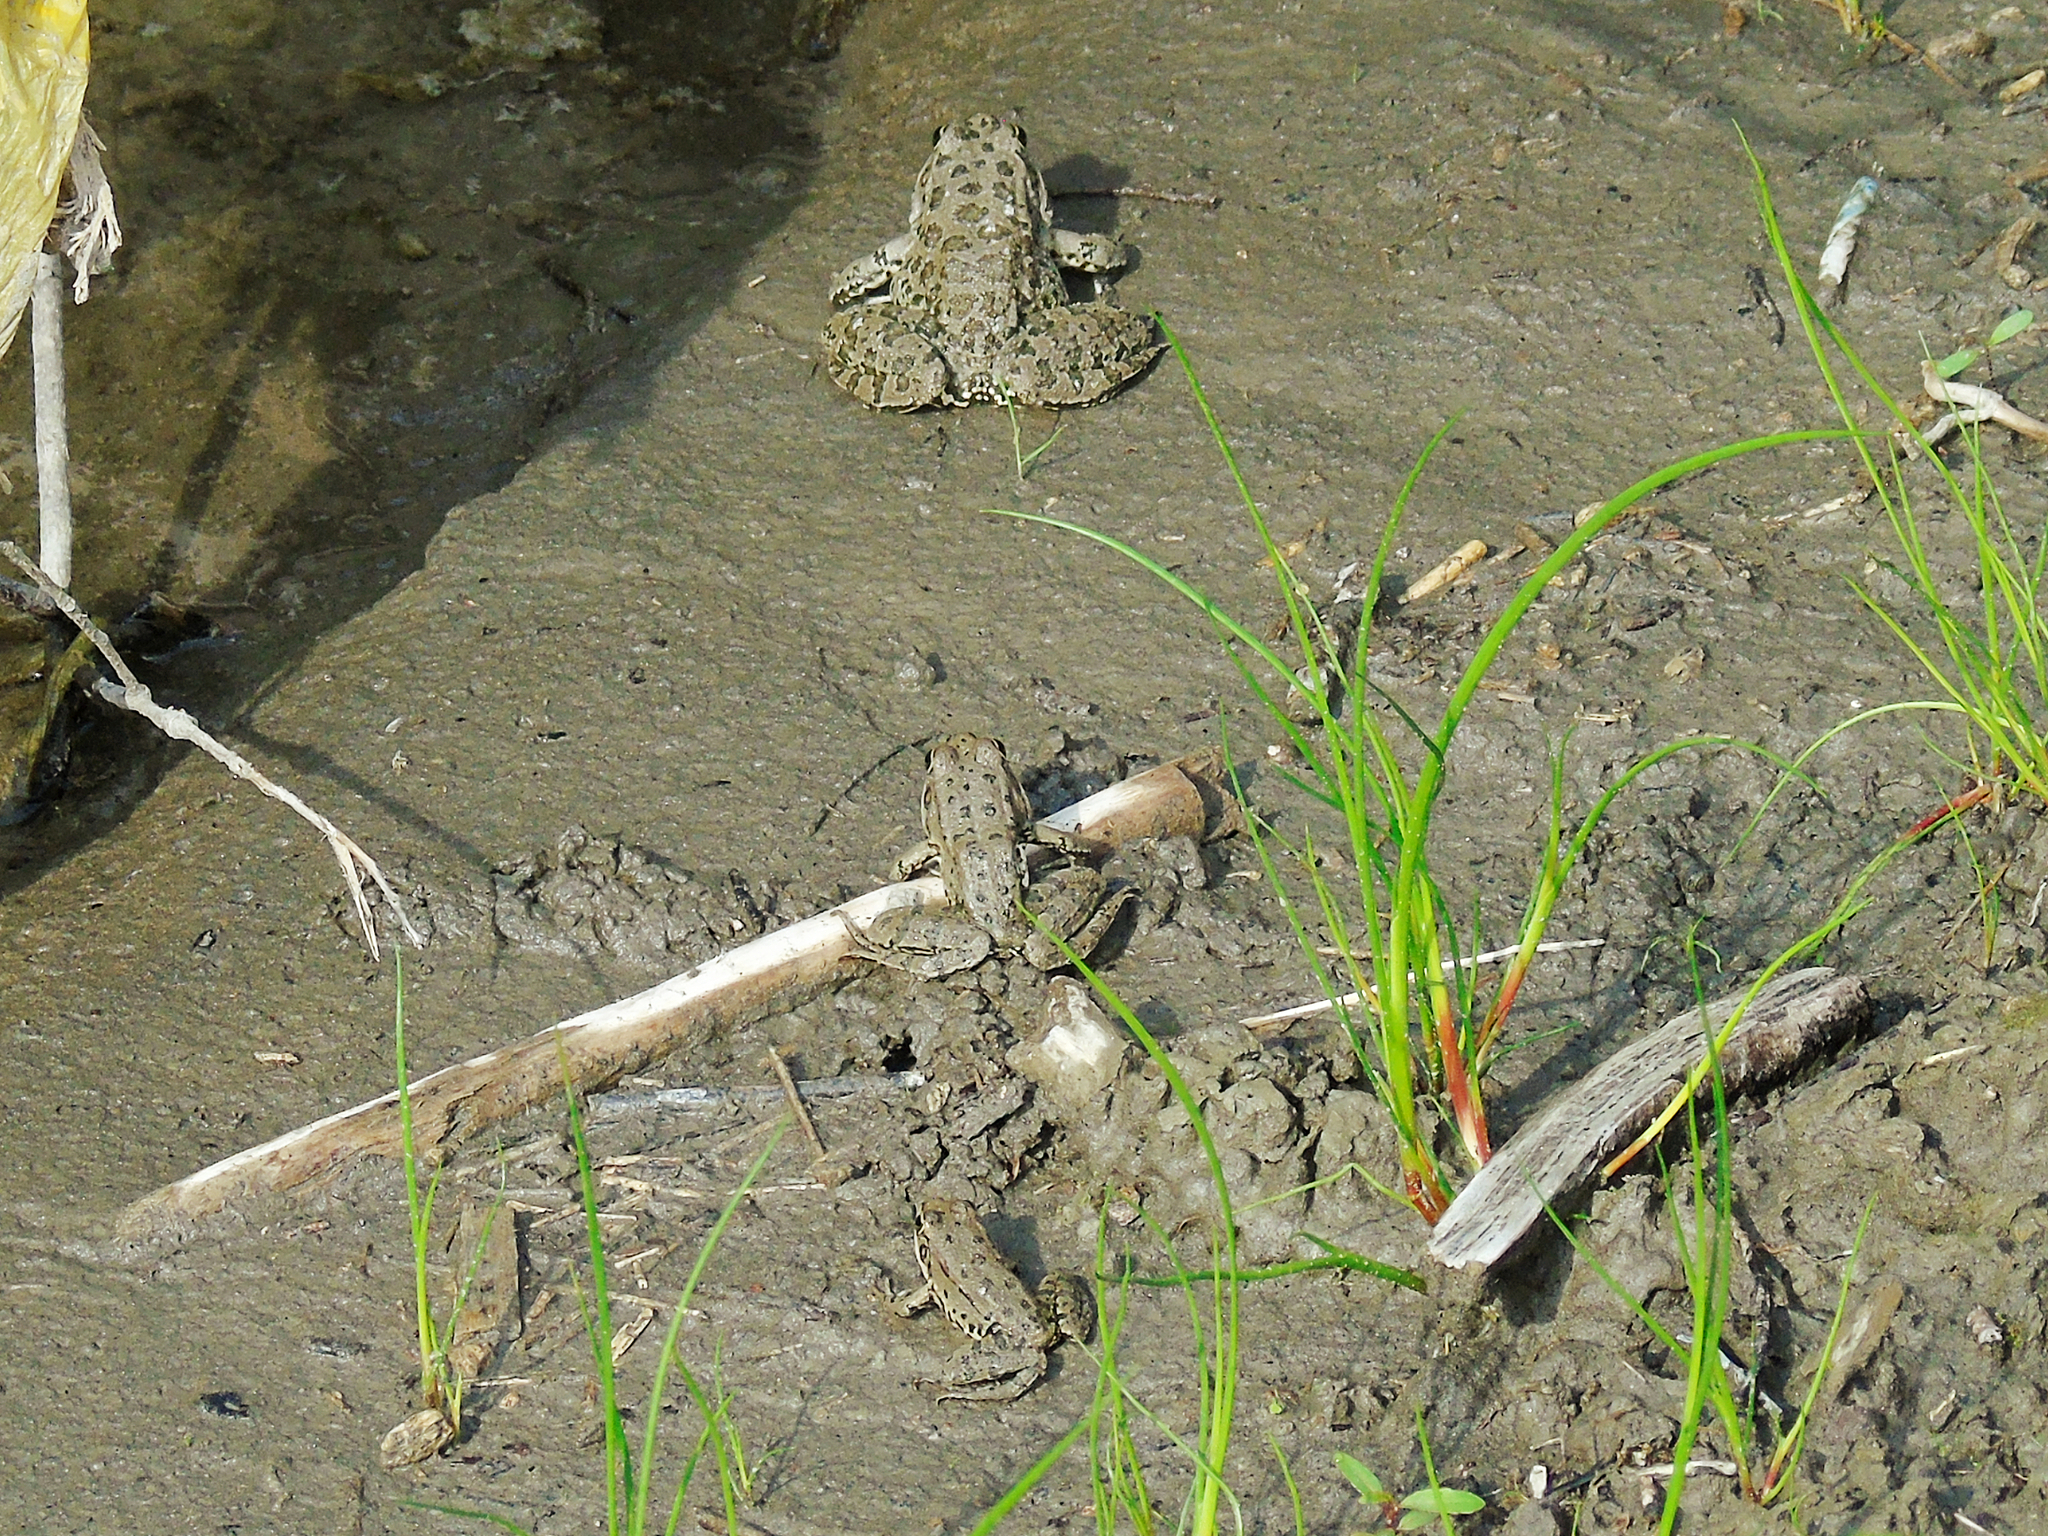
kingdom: Animalia
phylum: Chordata
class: Amphibia
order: Anura
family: Ranidae
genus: Pelophylax
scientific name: Pelophylax ridibundus
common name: Marsh frog
